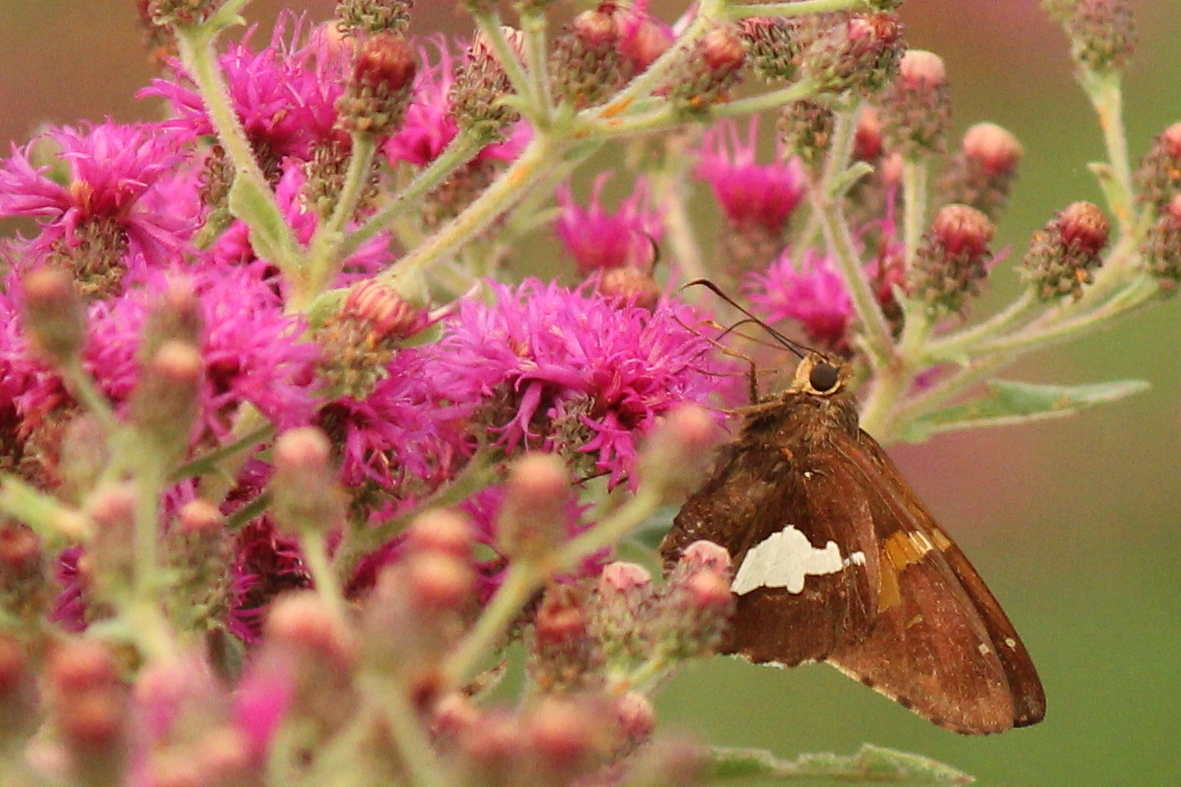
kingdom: Animalia
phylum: Arthropoda
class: Insecta
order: Lepidoptera
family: Hesperiidae
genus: Epargyreus
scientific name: Epargyreus clarus
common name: Silver-spotted skipper
